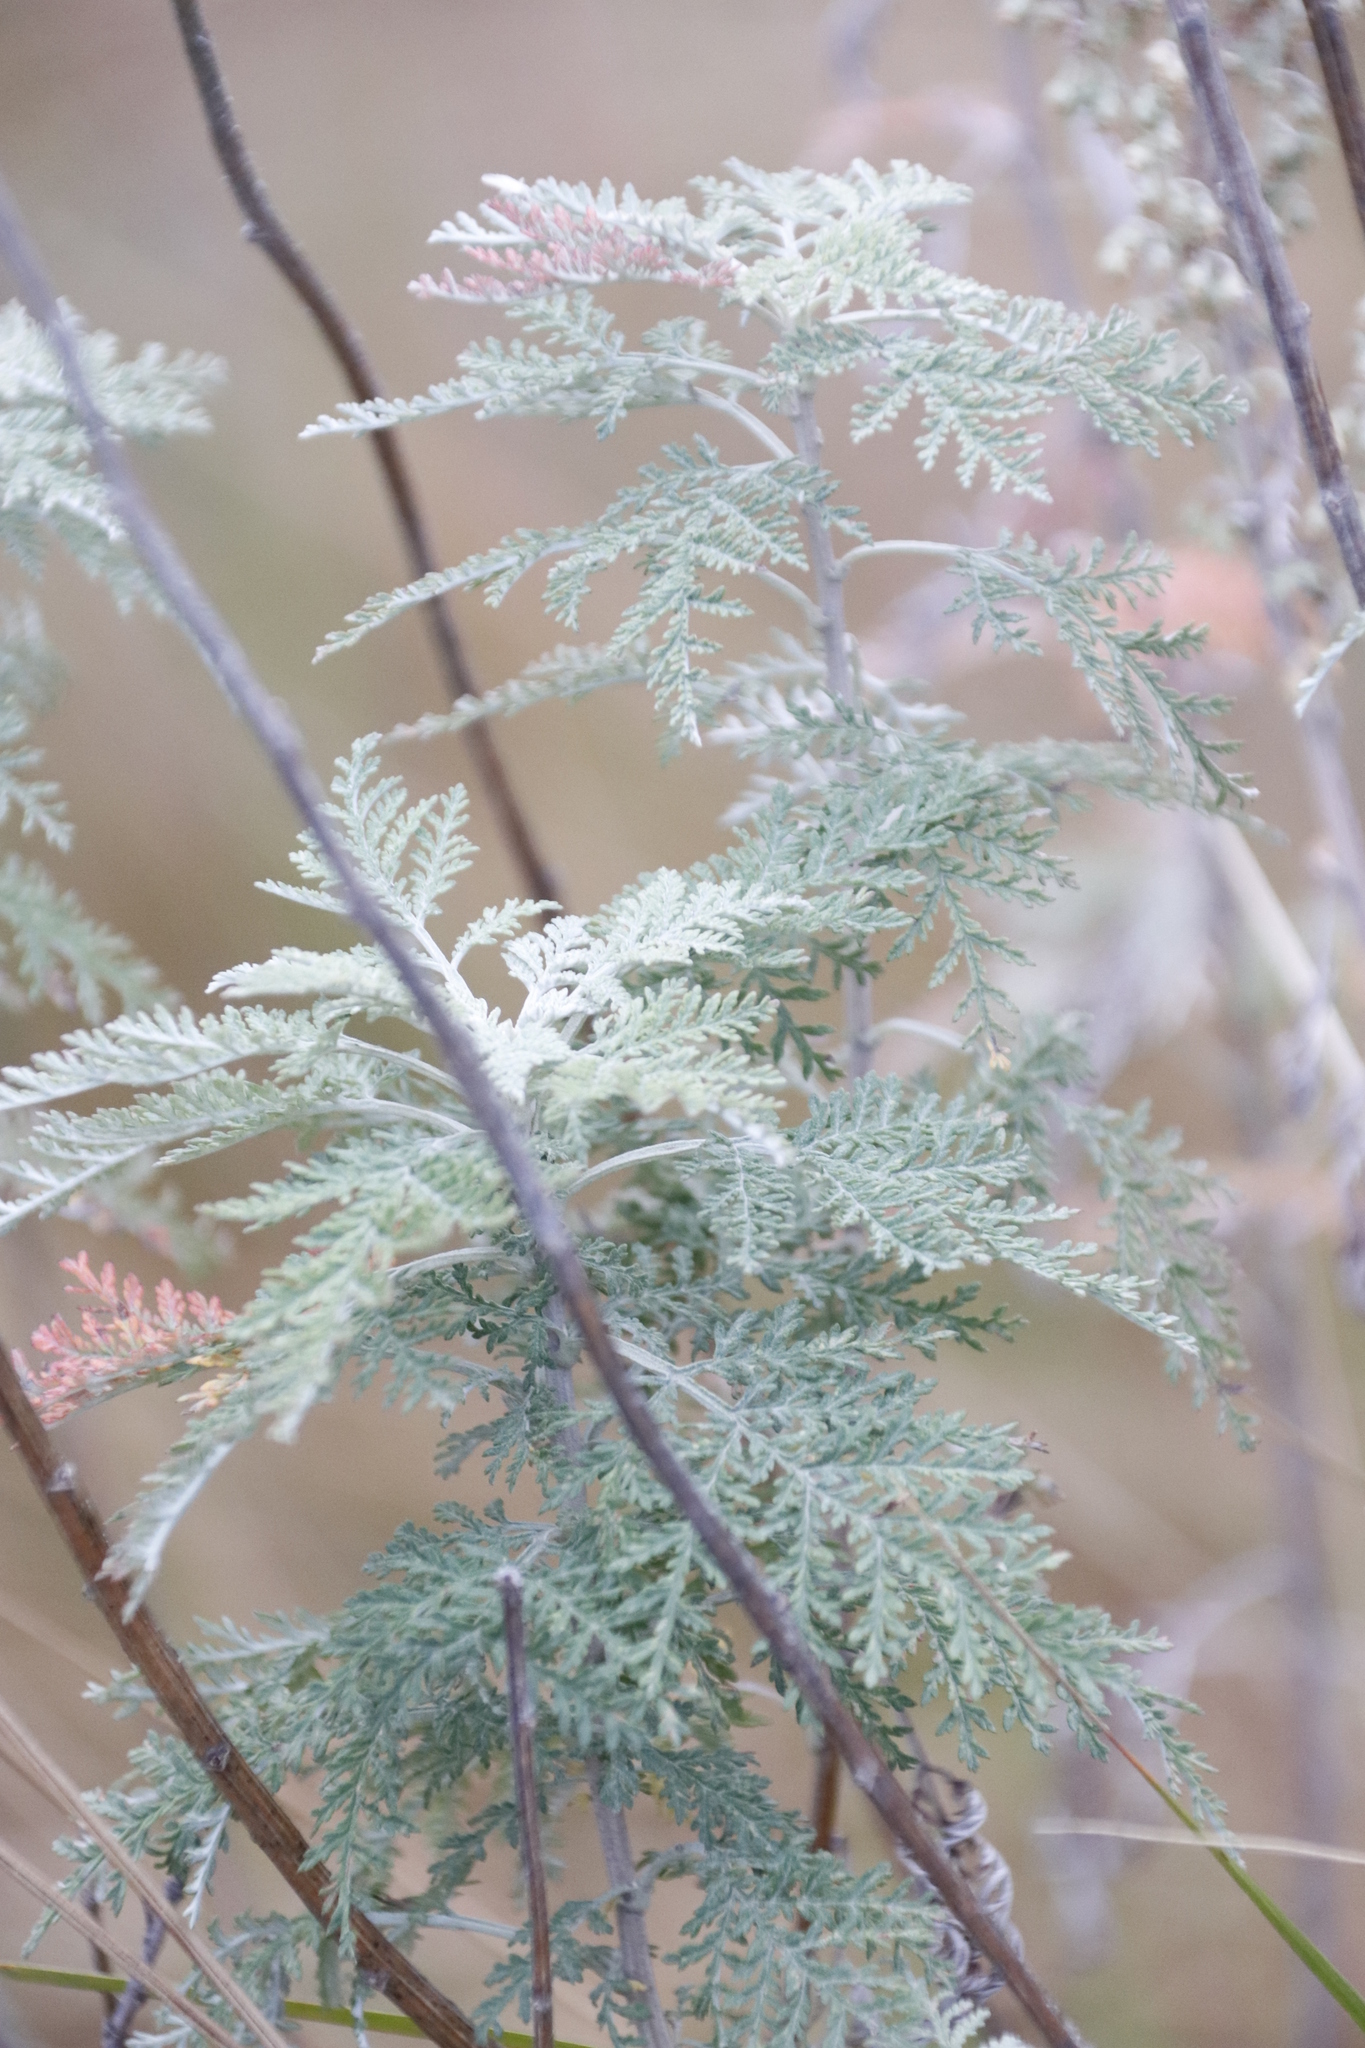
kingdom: Plantae
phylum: Tracheophyta
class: Magnoliopsida
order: Asterales
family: Asteraceae
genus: Artemisia
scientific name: Artemisia afra
